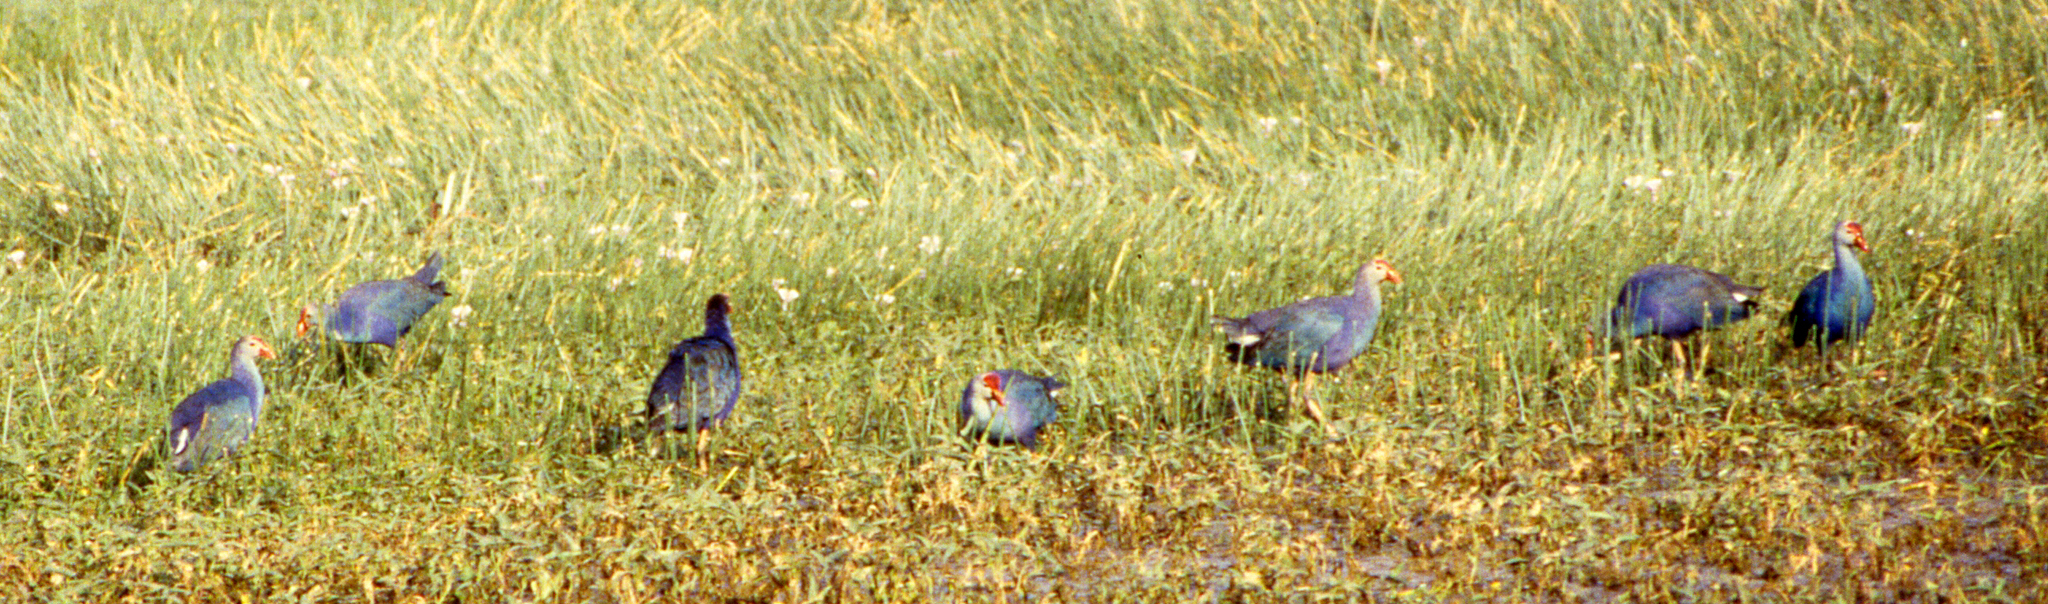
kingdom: Animalia
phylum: Chordata
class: Aves
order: Gruiformes
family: Rallidae
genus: Porphyrio
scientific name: Porphyrio porphyrio
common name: Purple swamphen
